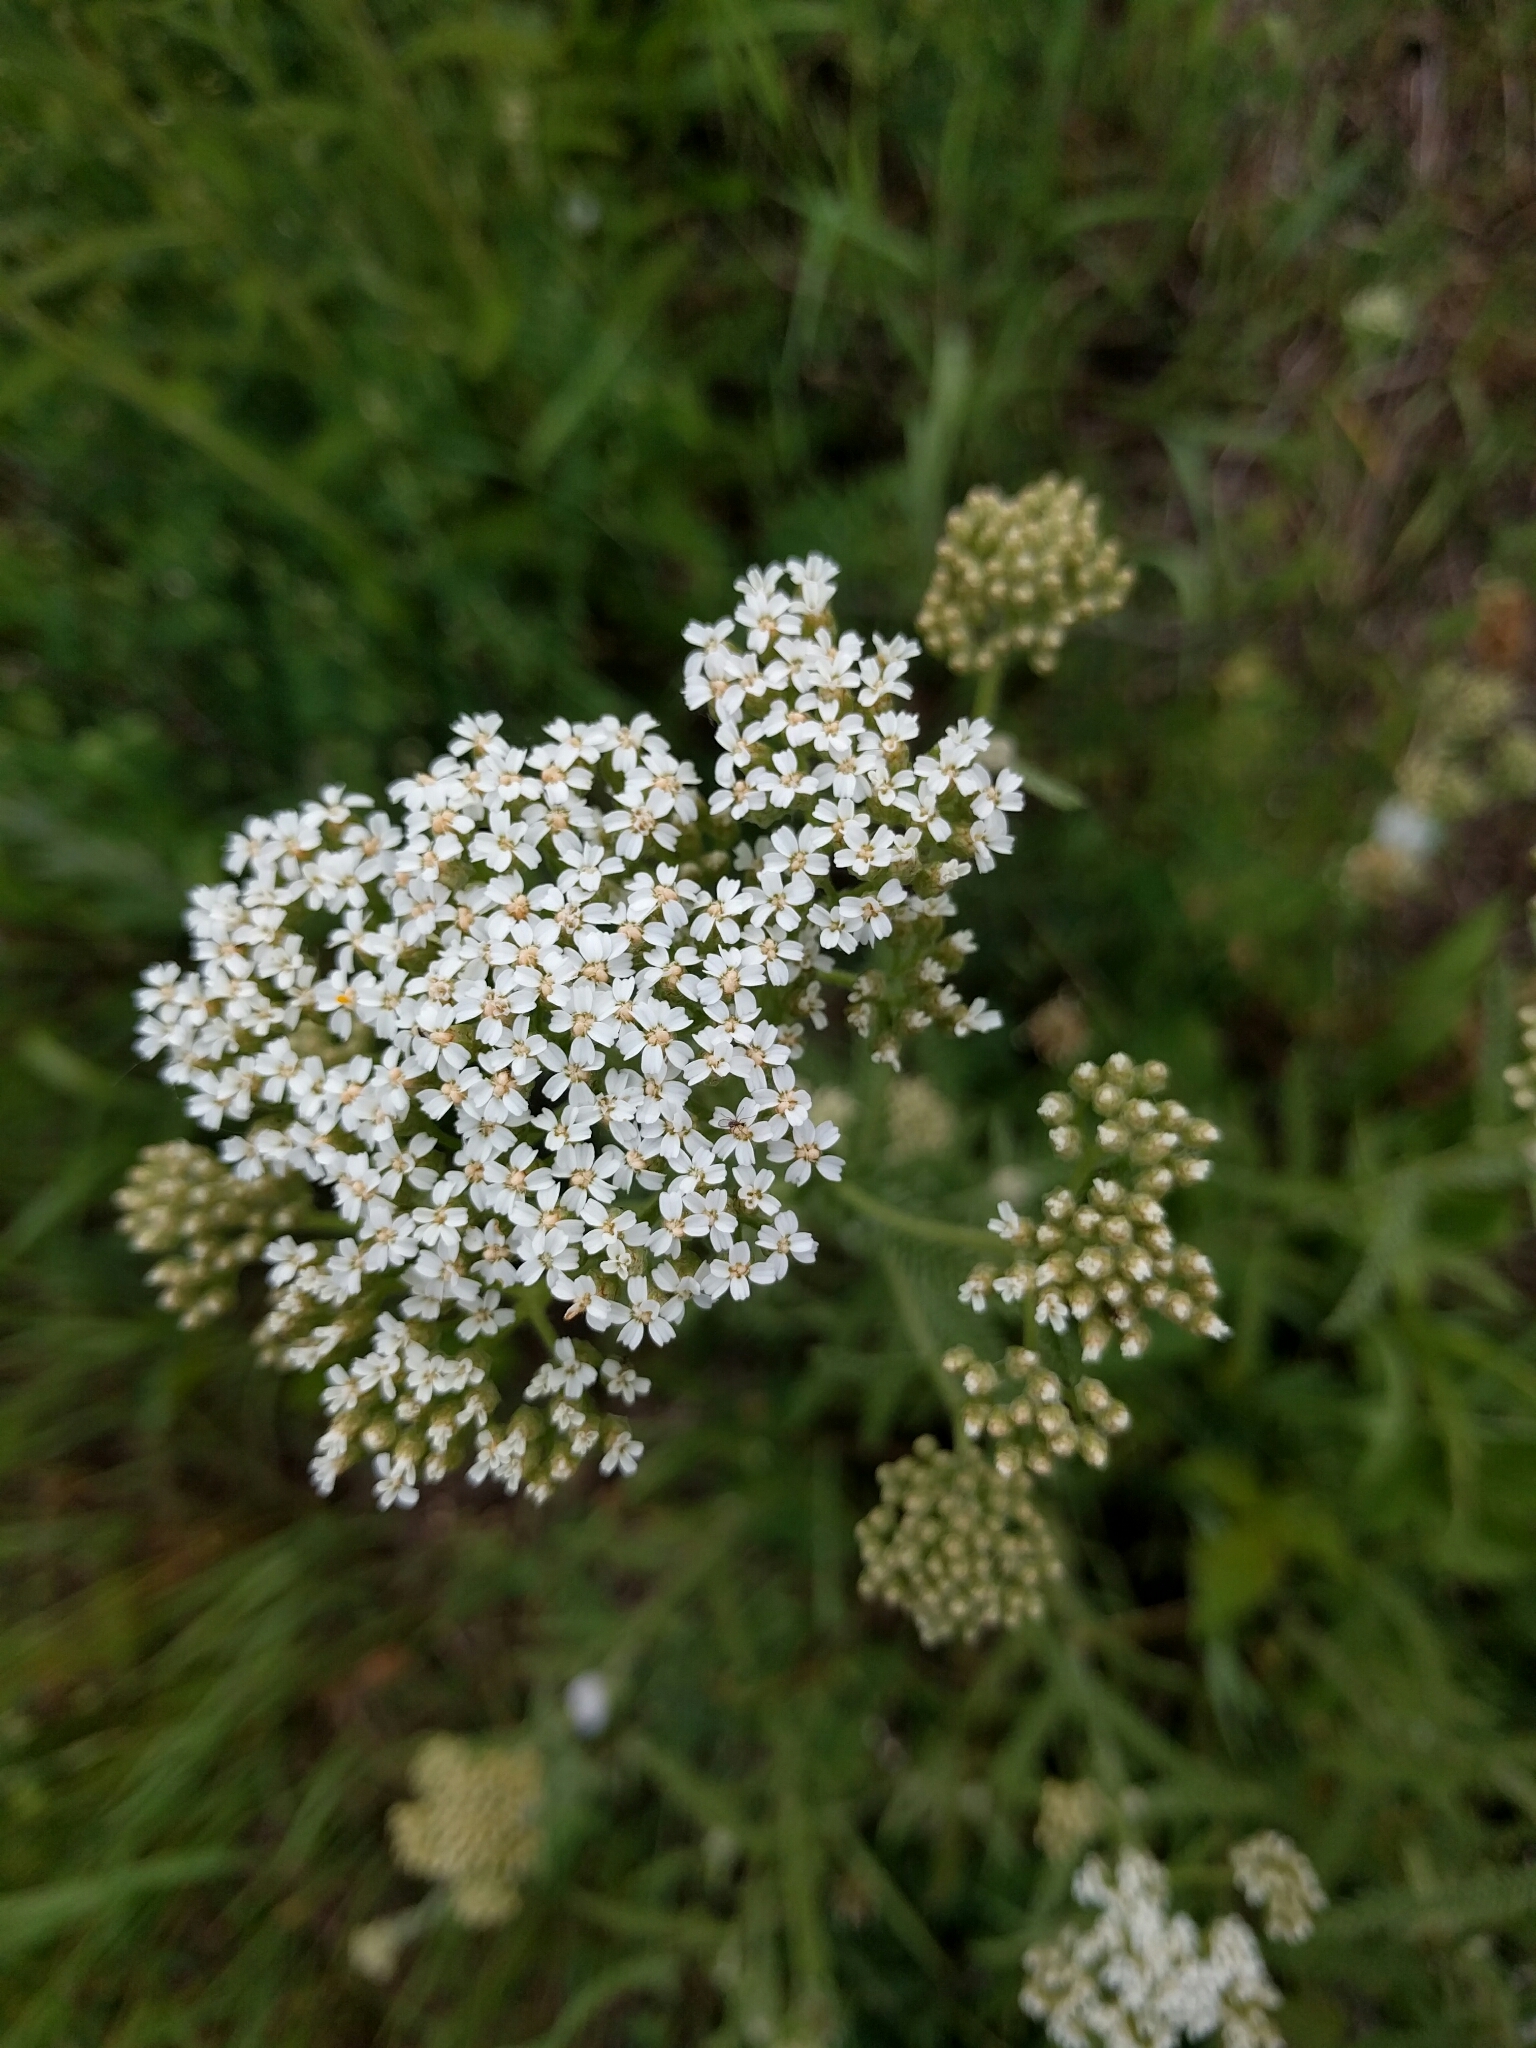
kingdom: Plantae
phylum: Tracheophyta
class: Magnoliopsida
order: Asterales
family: Asteraceae
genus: Achillea
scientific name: Achillea millefolium
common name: Yarrow
